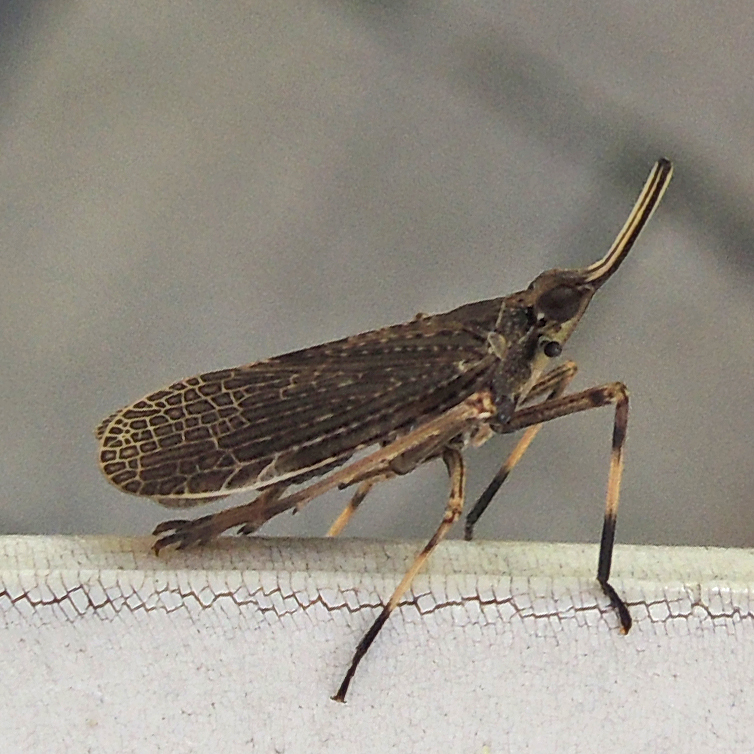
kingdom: Animalia
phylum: Arthropoda
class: Insecta
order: Hemiptera
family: Dictyopharidae
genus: Scolops
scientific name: Scolops sulcipes
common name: Partridge planthopper
